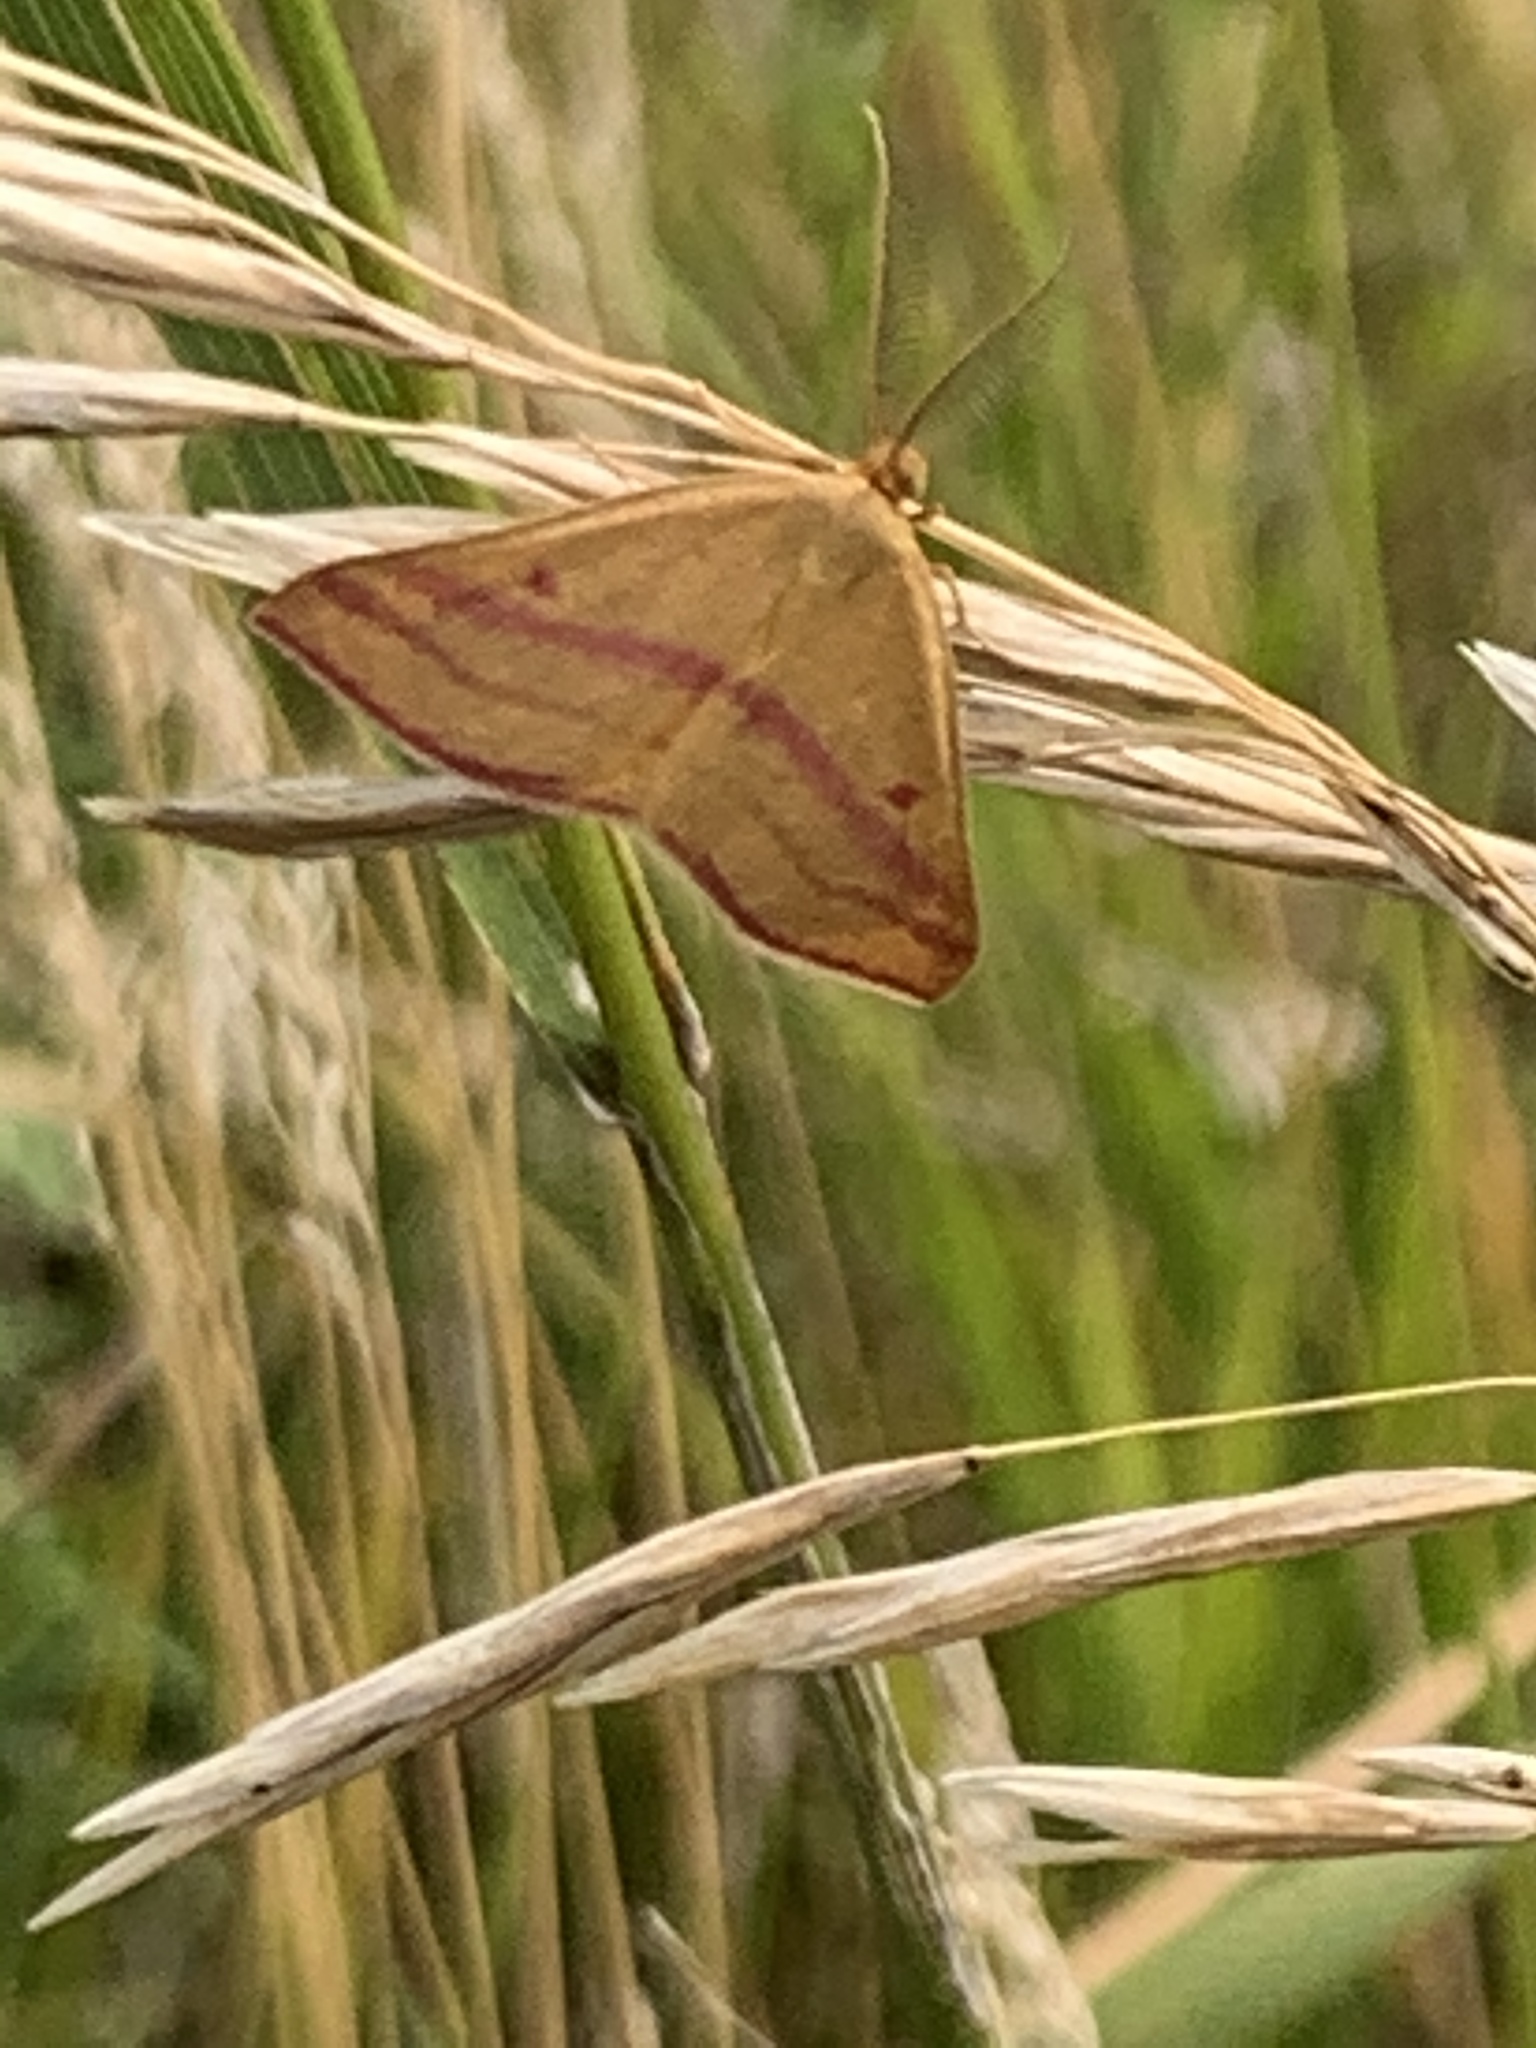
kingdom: Animalia
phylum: Arthropoda
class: Insecta
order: Lepidoptera
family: Geometridae
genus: Haematopis
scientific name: Haematopis grataria
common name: Chickweed geometer
